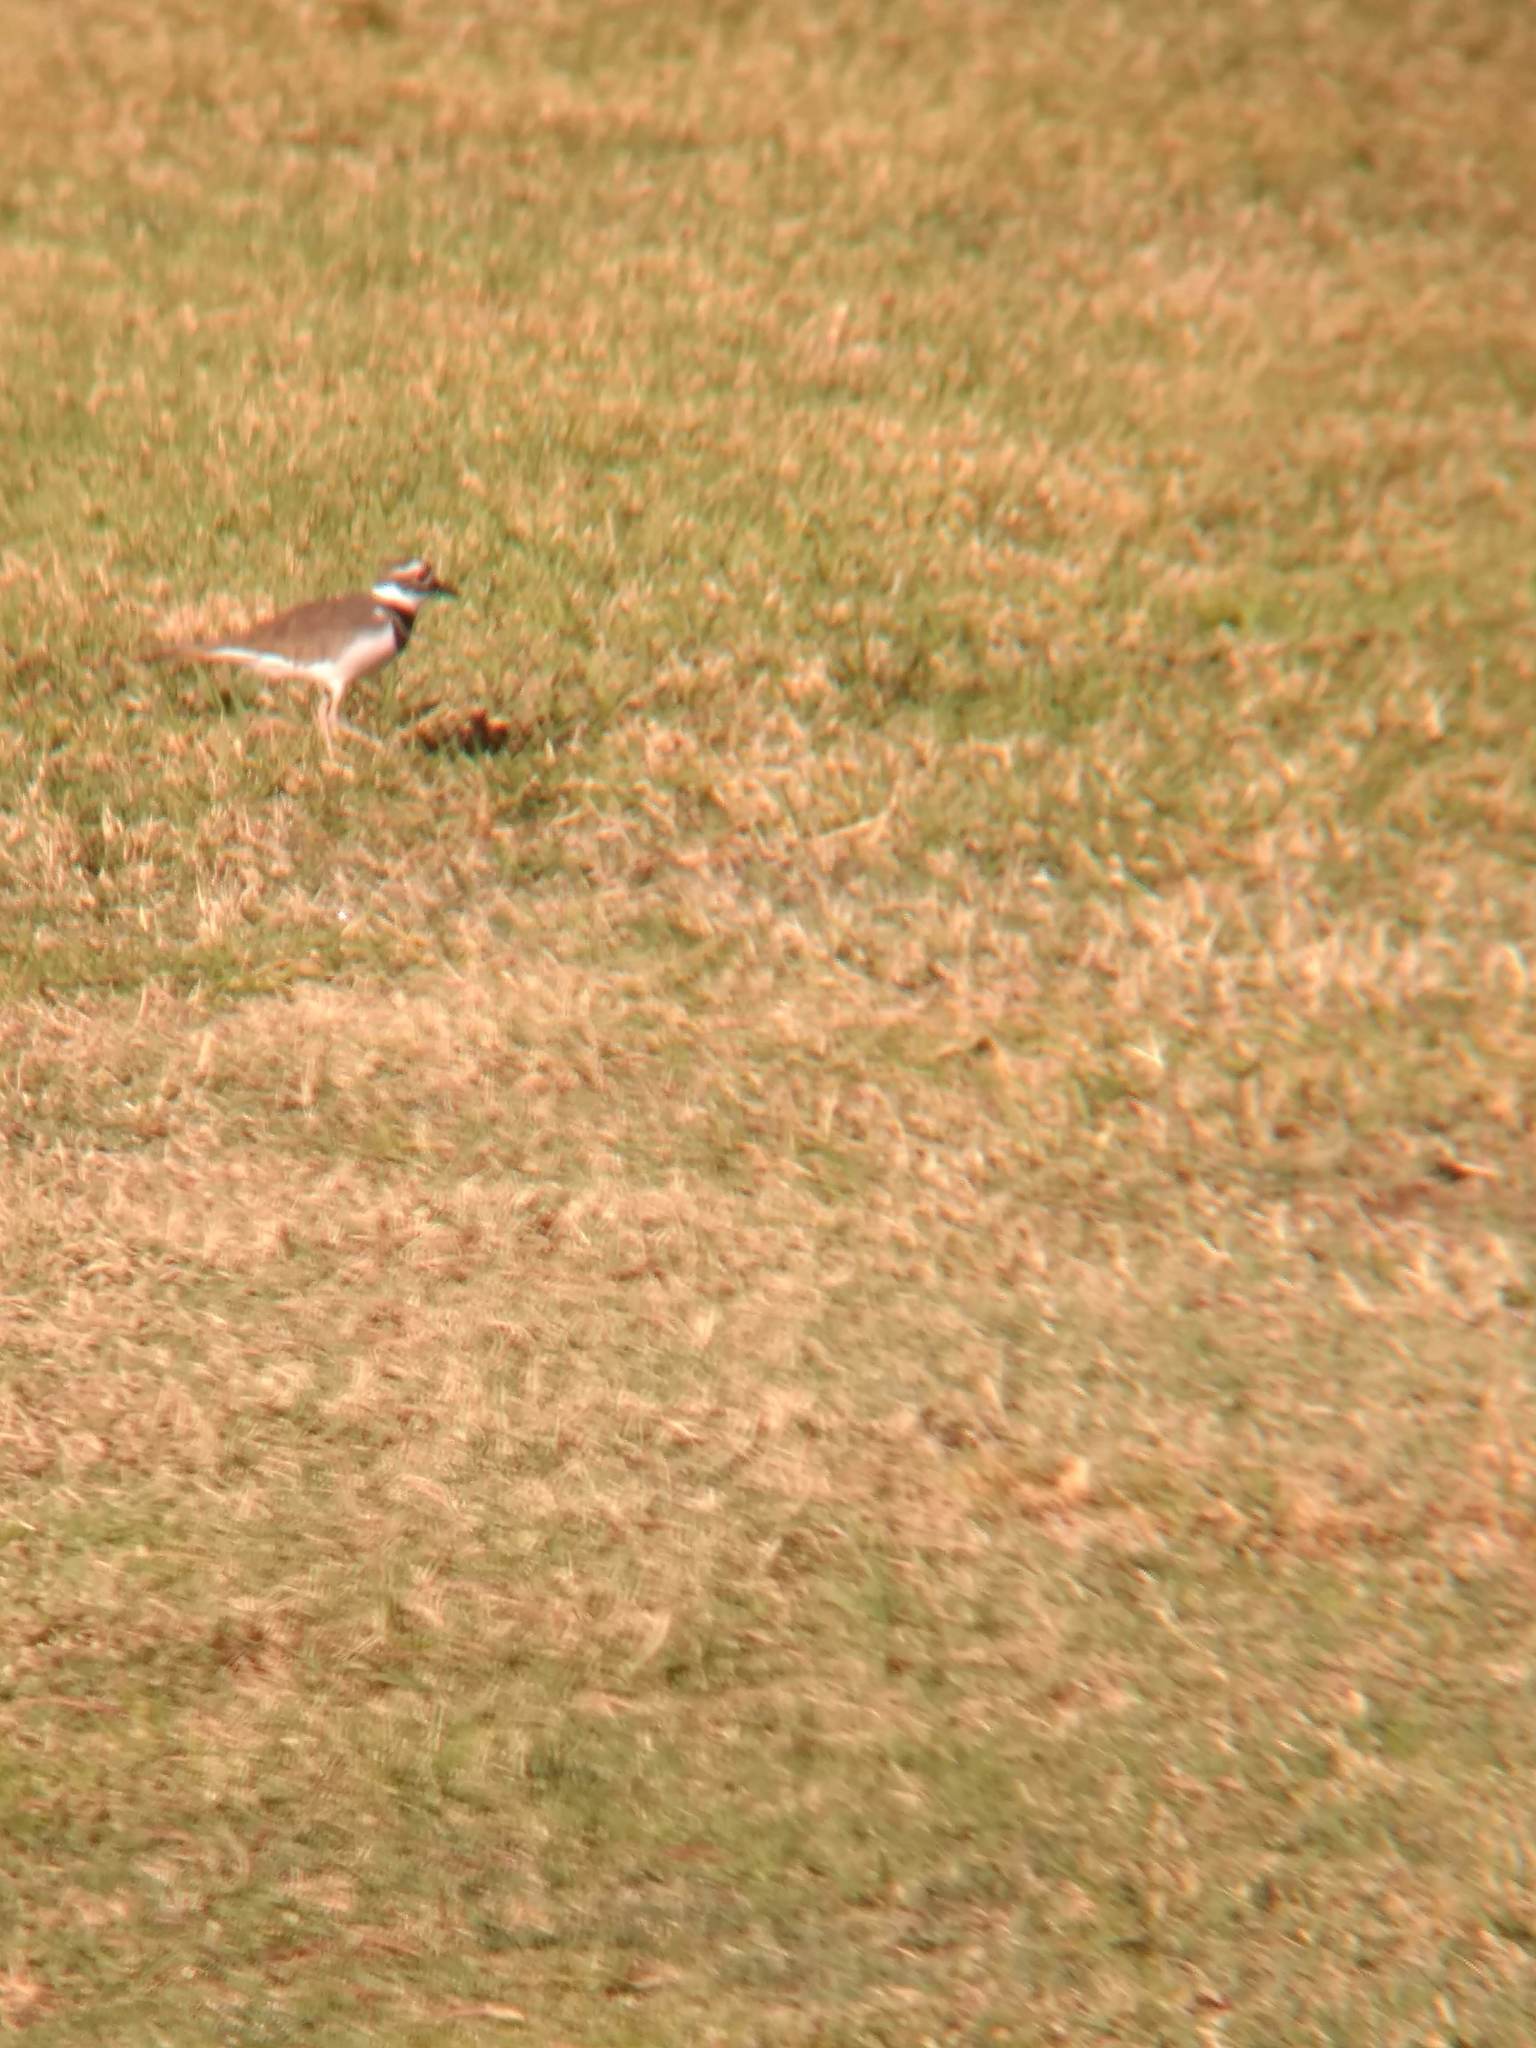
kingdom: Animalia
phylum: Chordata
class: Aves
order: Charadriiformes
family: Charadriidae
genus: Charadrius
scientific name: Charadrius vociferus
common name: Killdeer
